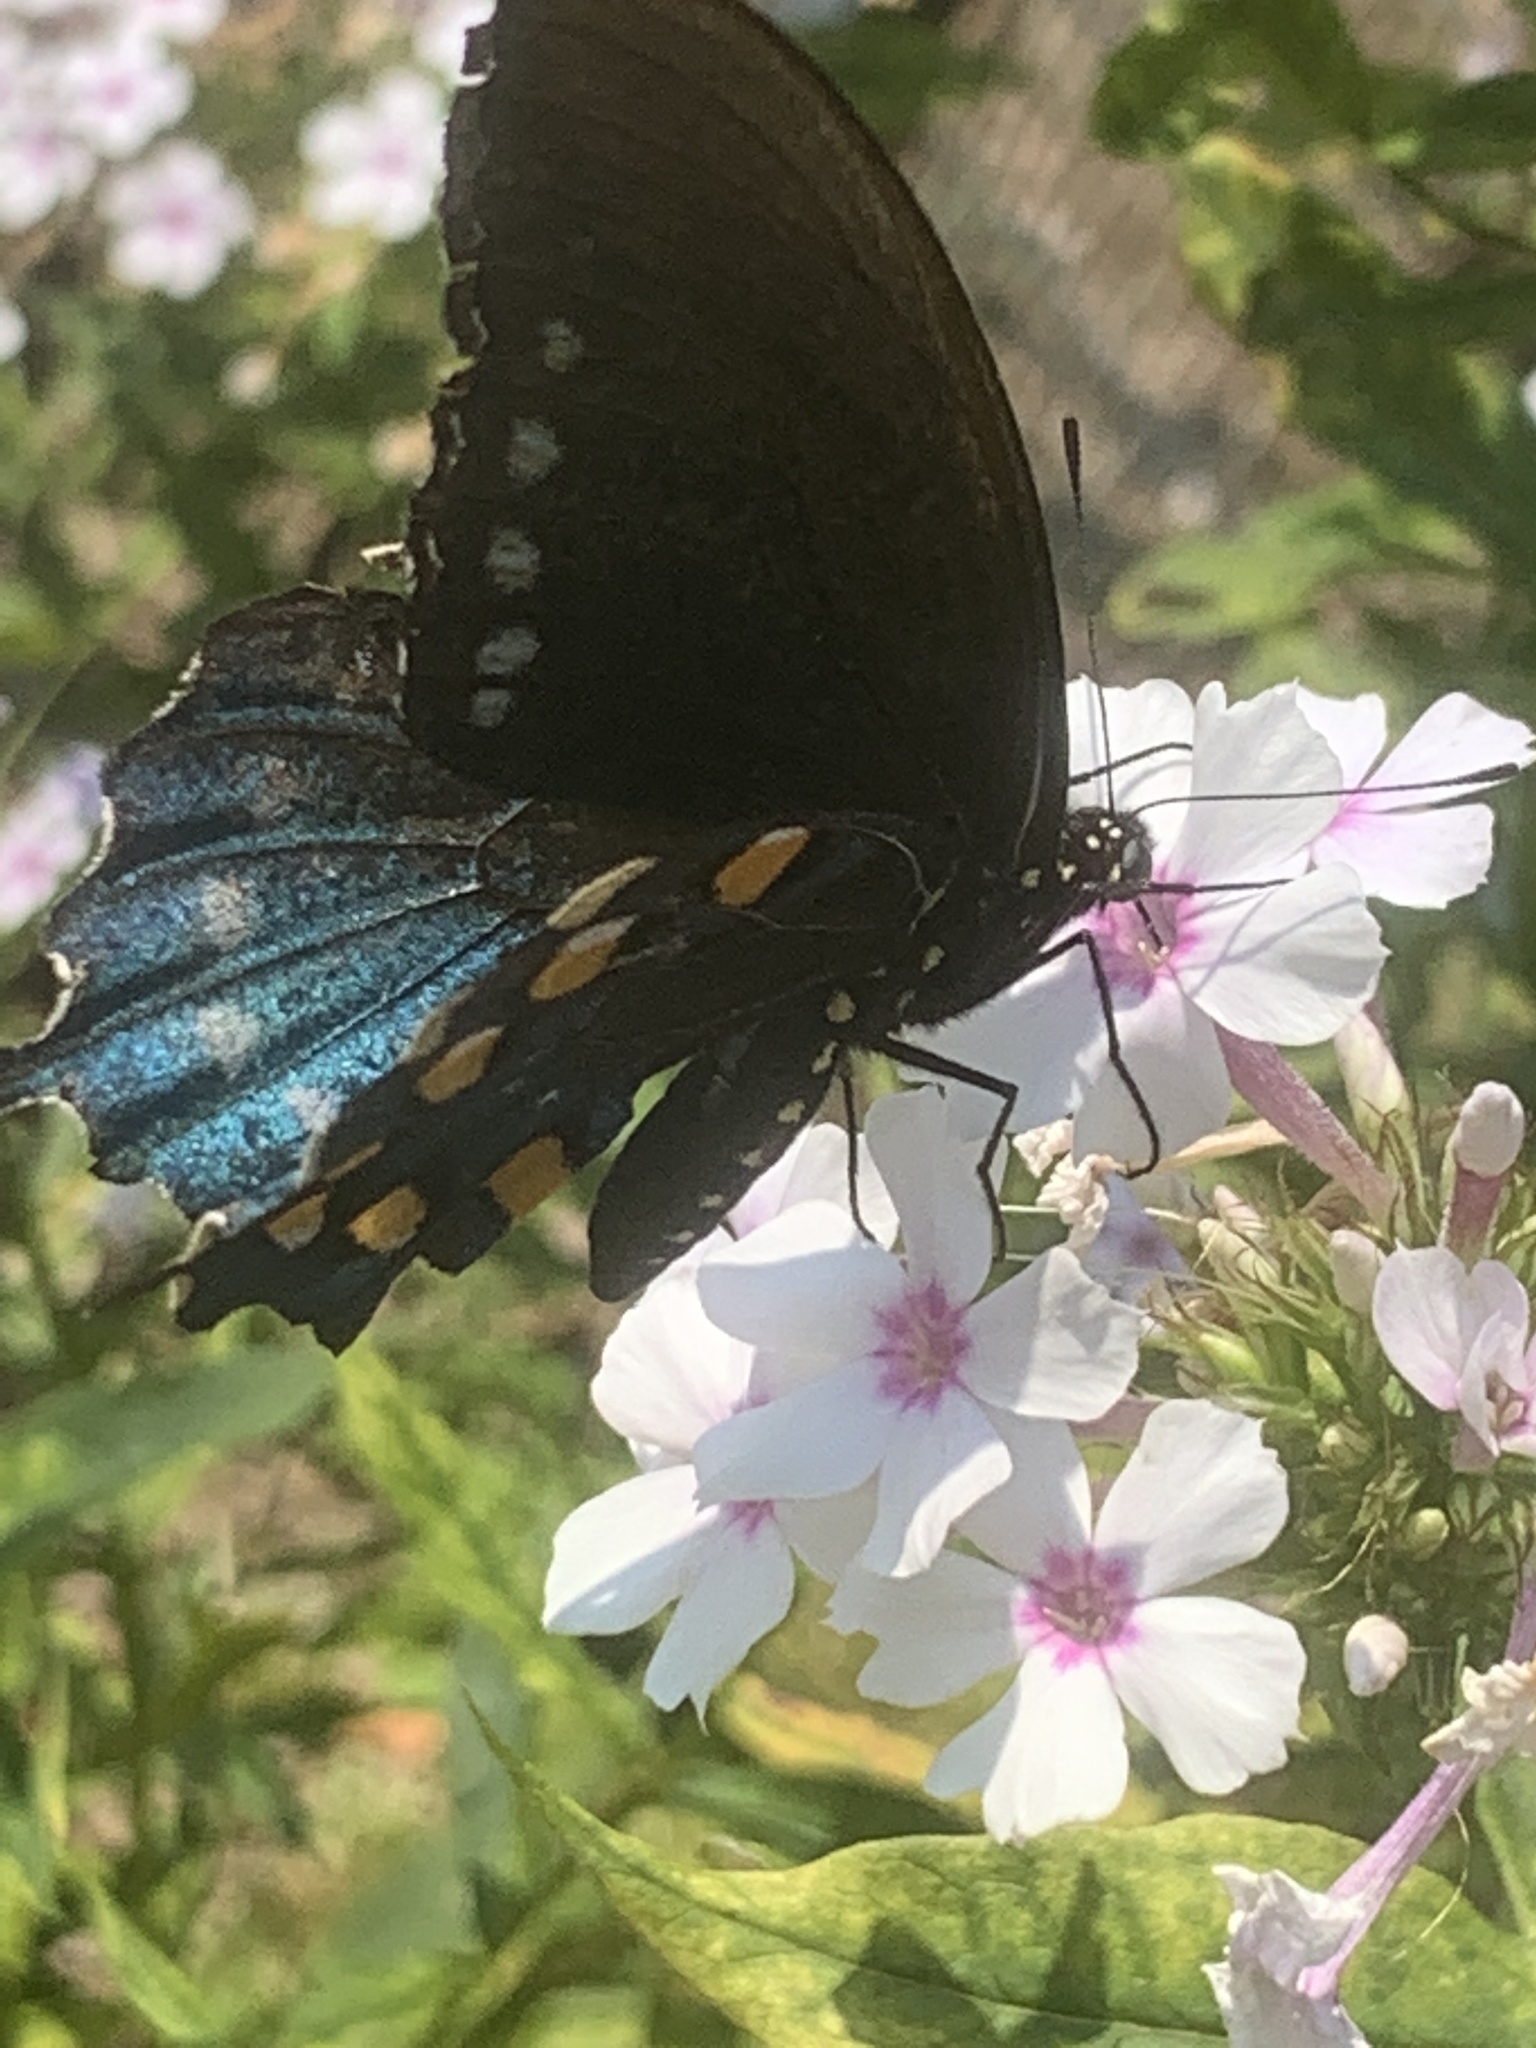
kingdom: Animalia
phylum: Arthropoda
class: Insecta
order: Lepidoptera
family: Papilionidae
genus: Battus
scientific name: Battus philenor
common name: Pipevine swallowtail
